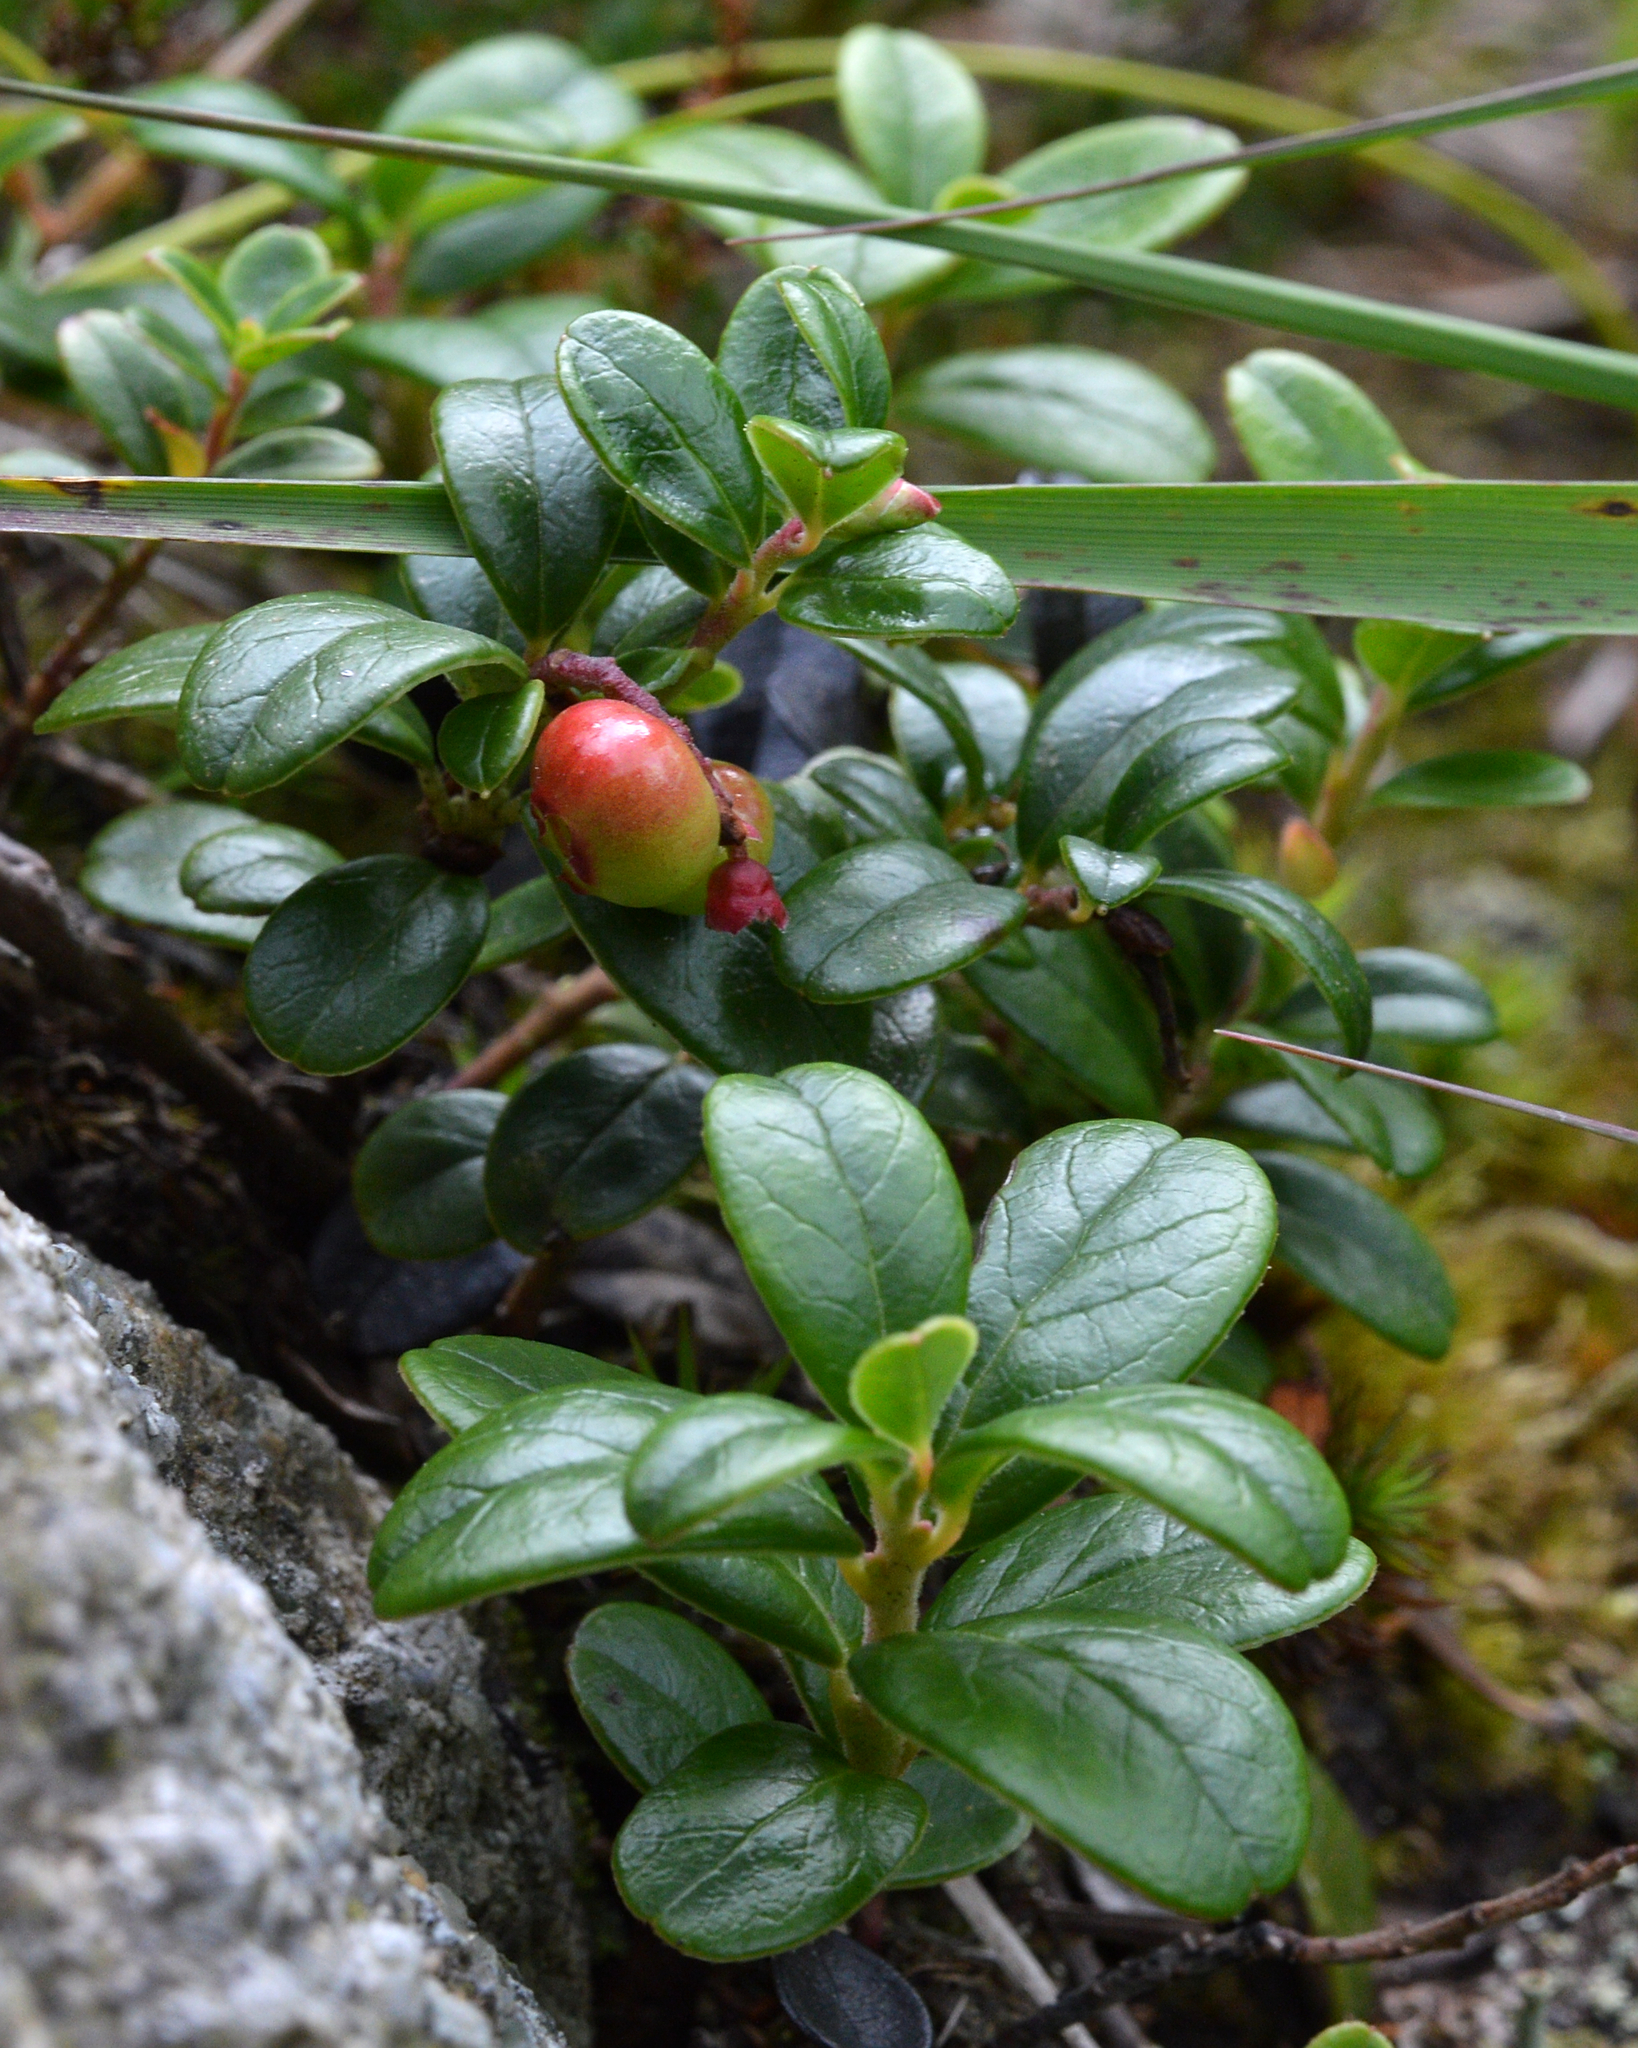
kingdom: Plantae
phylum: Tracheophyta
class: Magnoliopsida
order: Ericales
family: Ericaceae
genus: Vaccinium
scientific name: Vaccinium vitis-idaea
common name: Cowberry
